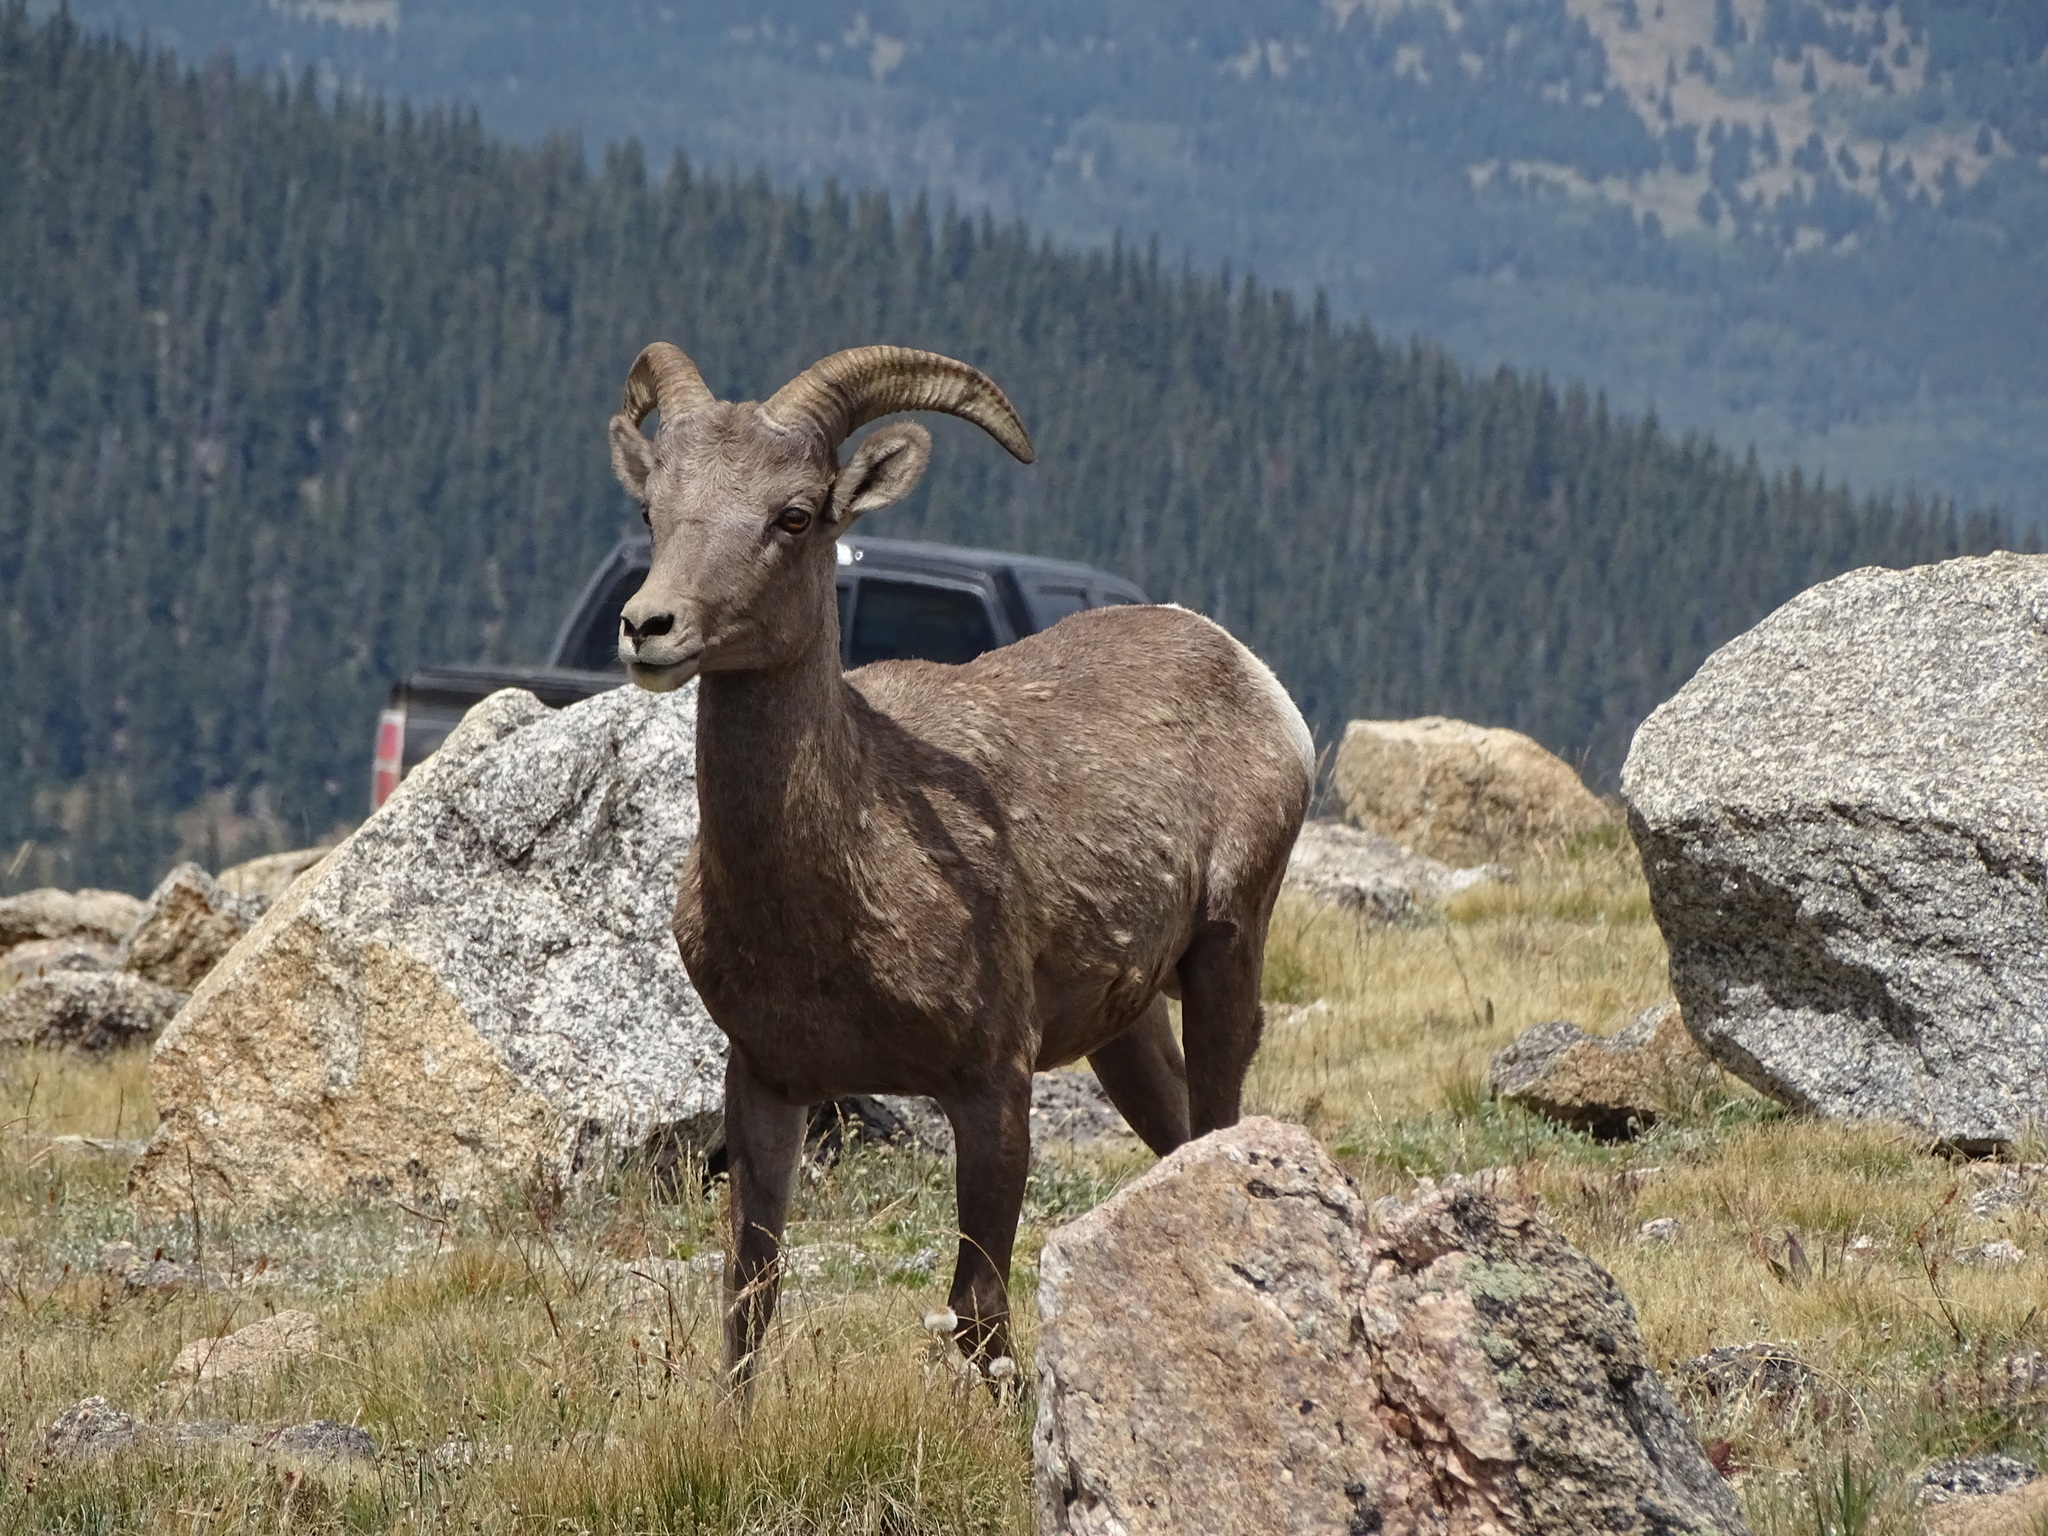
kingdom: Animalia
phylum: Chordata
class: Mammalia
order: Artiodactyla
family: Bovidae
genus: Ovis
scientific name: Ovis canadensis
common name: Bighorn sheep
